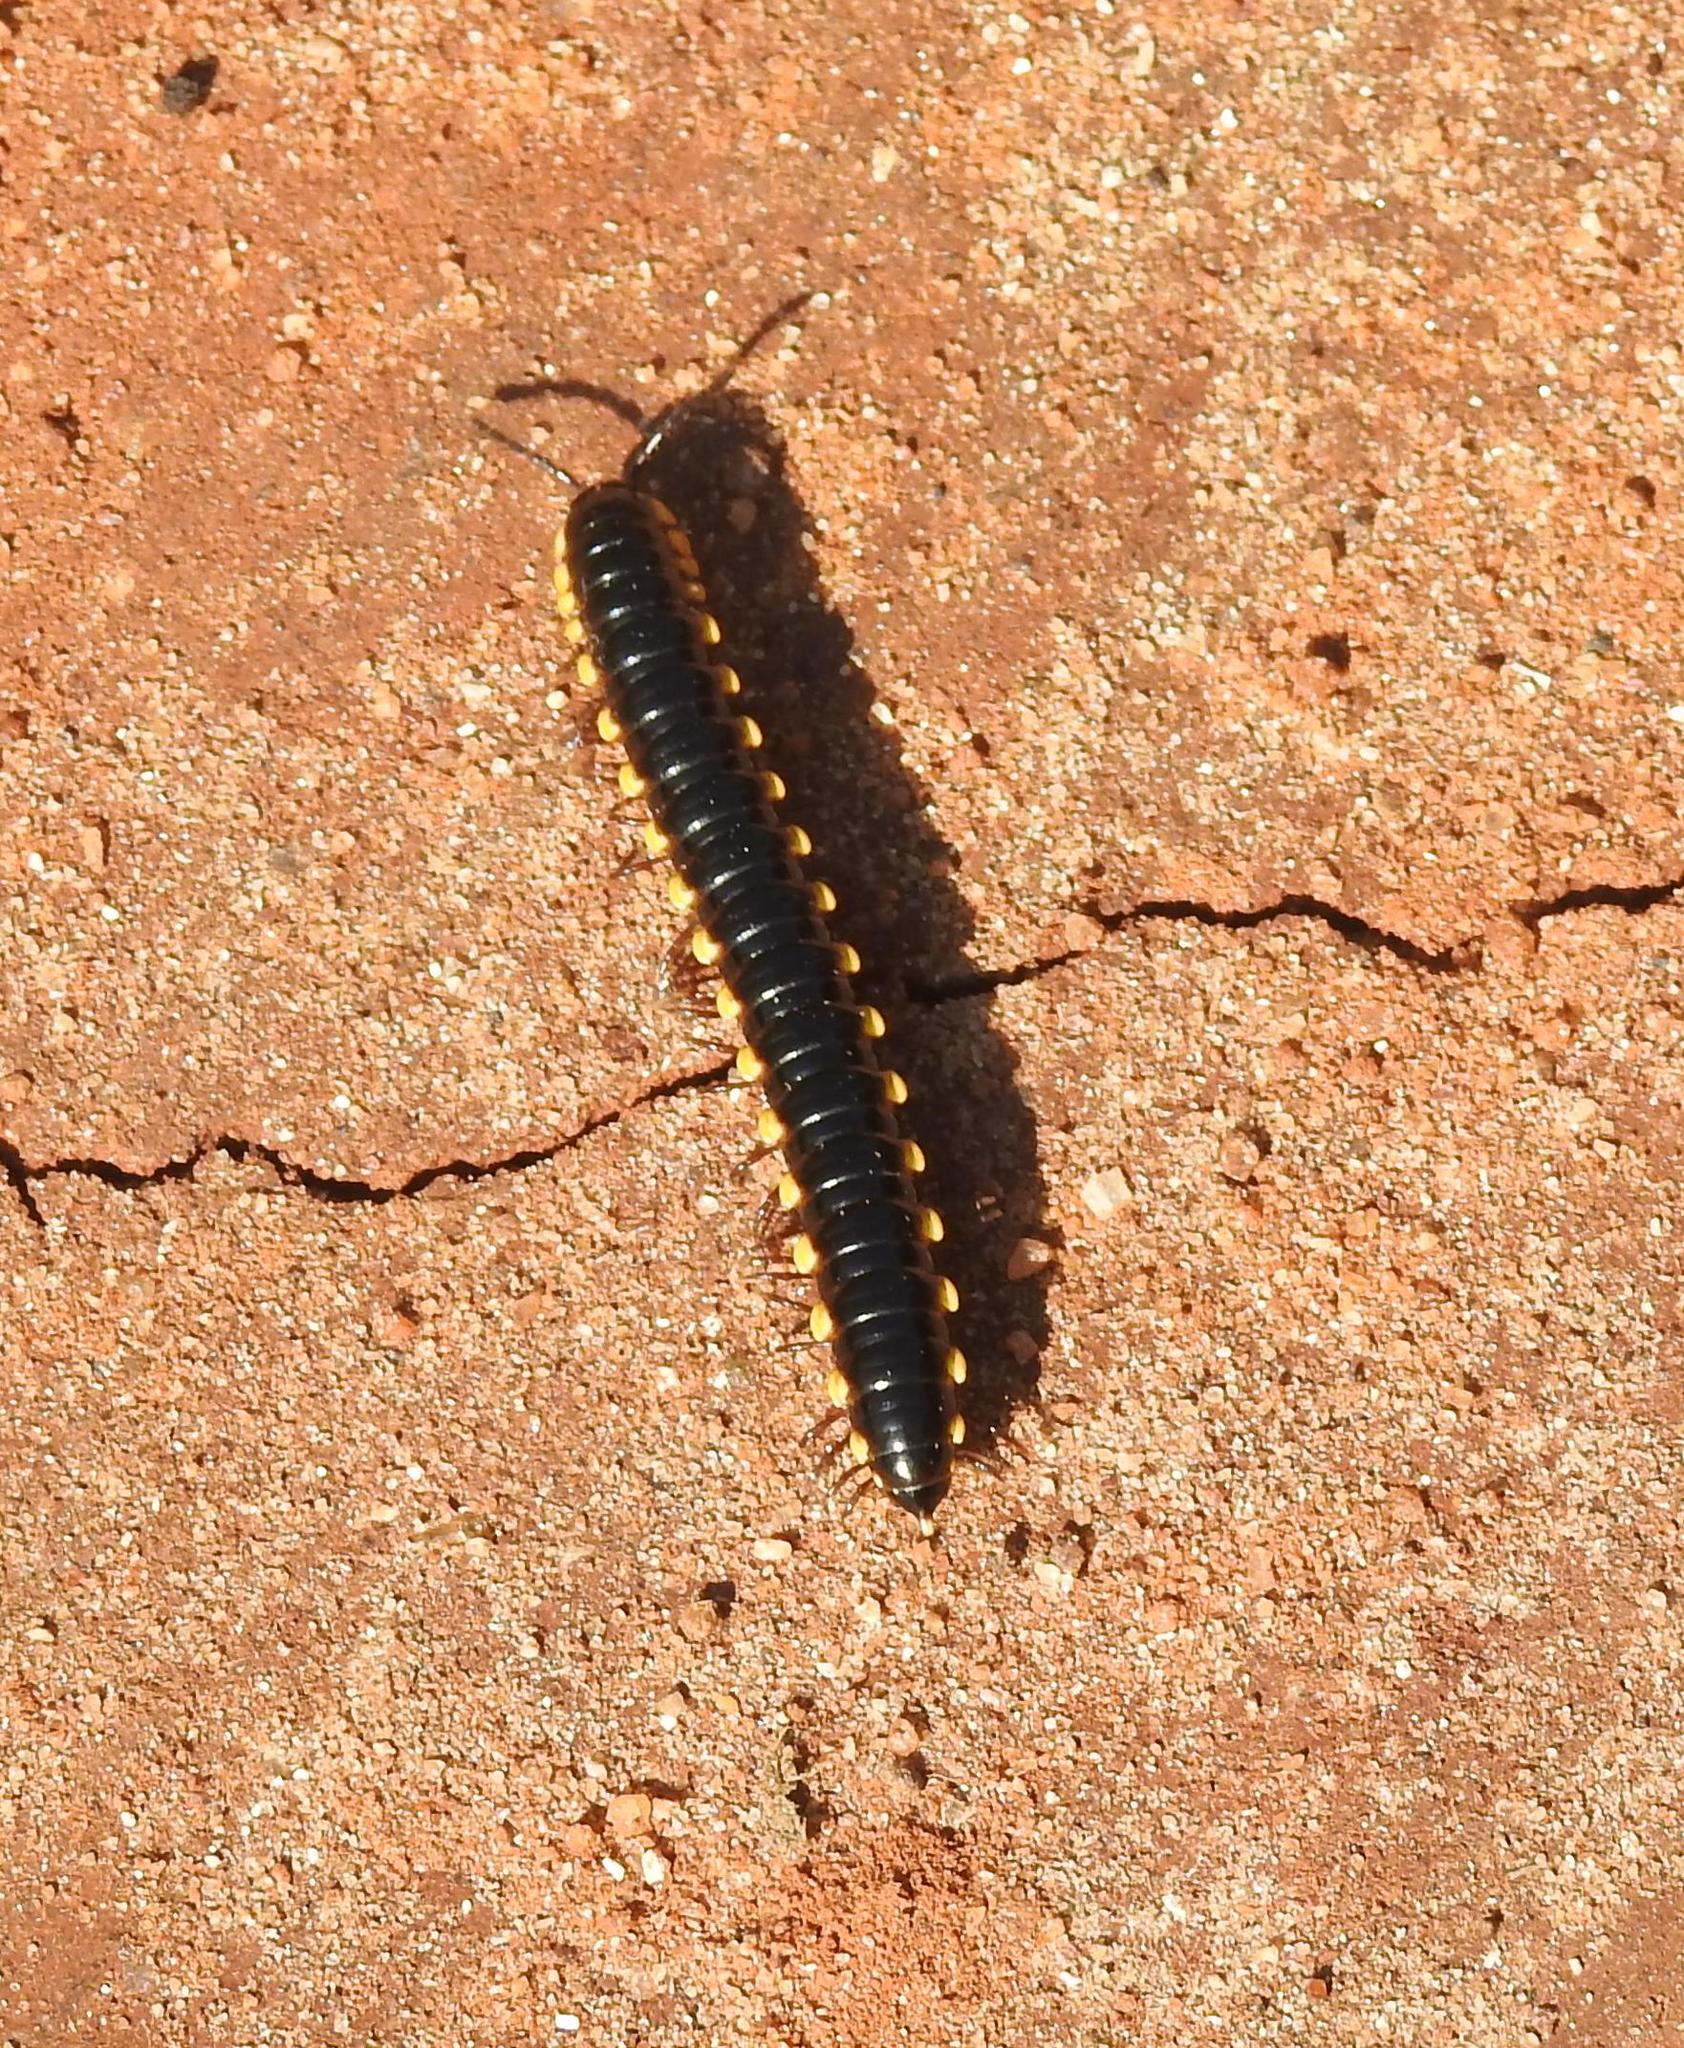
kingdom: Animalia
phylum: Arthropoda
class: Diplopoda
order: Polydesmida
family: Paradoxosomatidae
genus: Orthomorpha
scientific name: Orthomorpha coarctata
